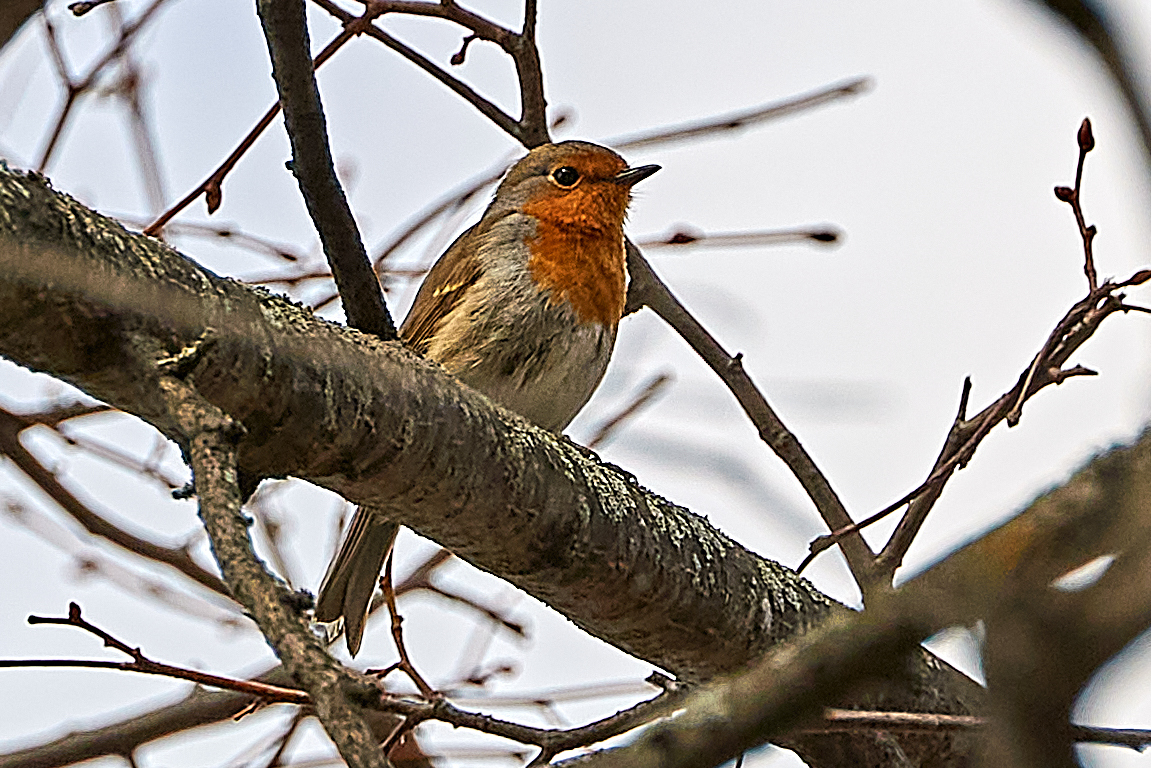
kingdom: Animalia
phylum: Chordata
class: Aves
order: Passeriformes
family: Muscicapidae
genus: Erithacus
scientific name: Erithacus rubecula
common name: European robin
